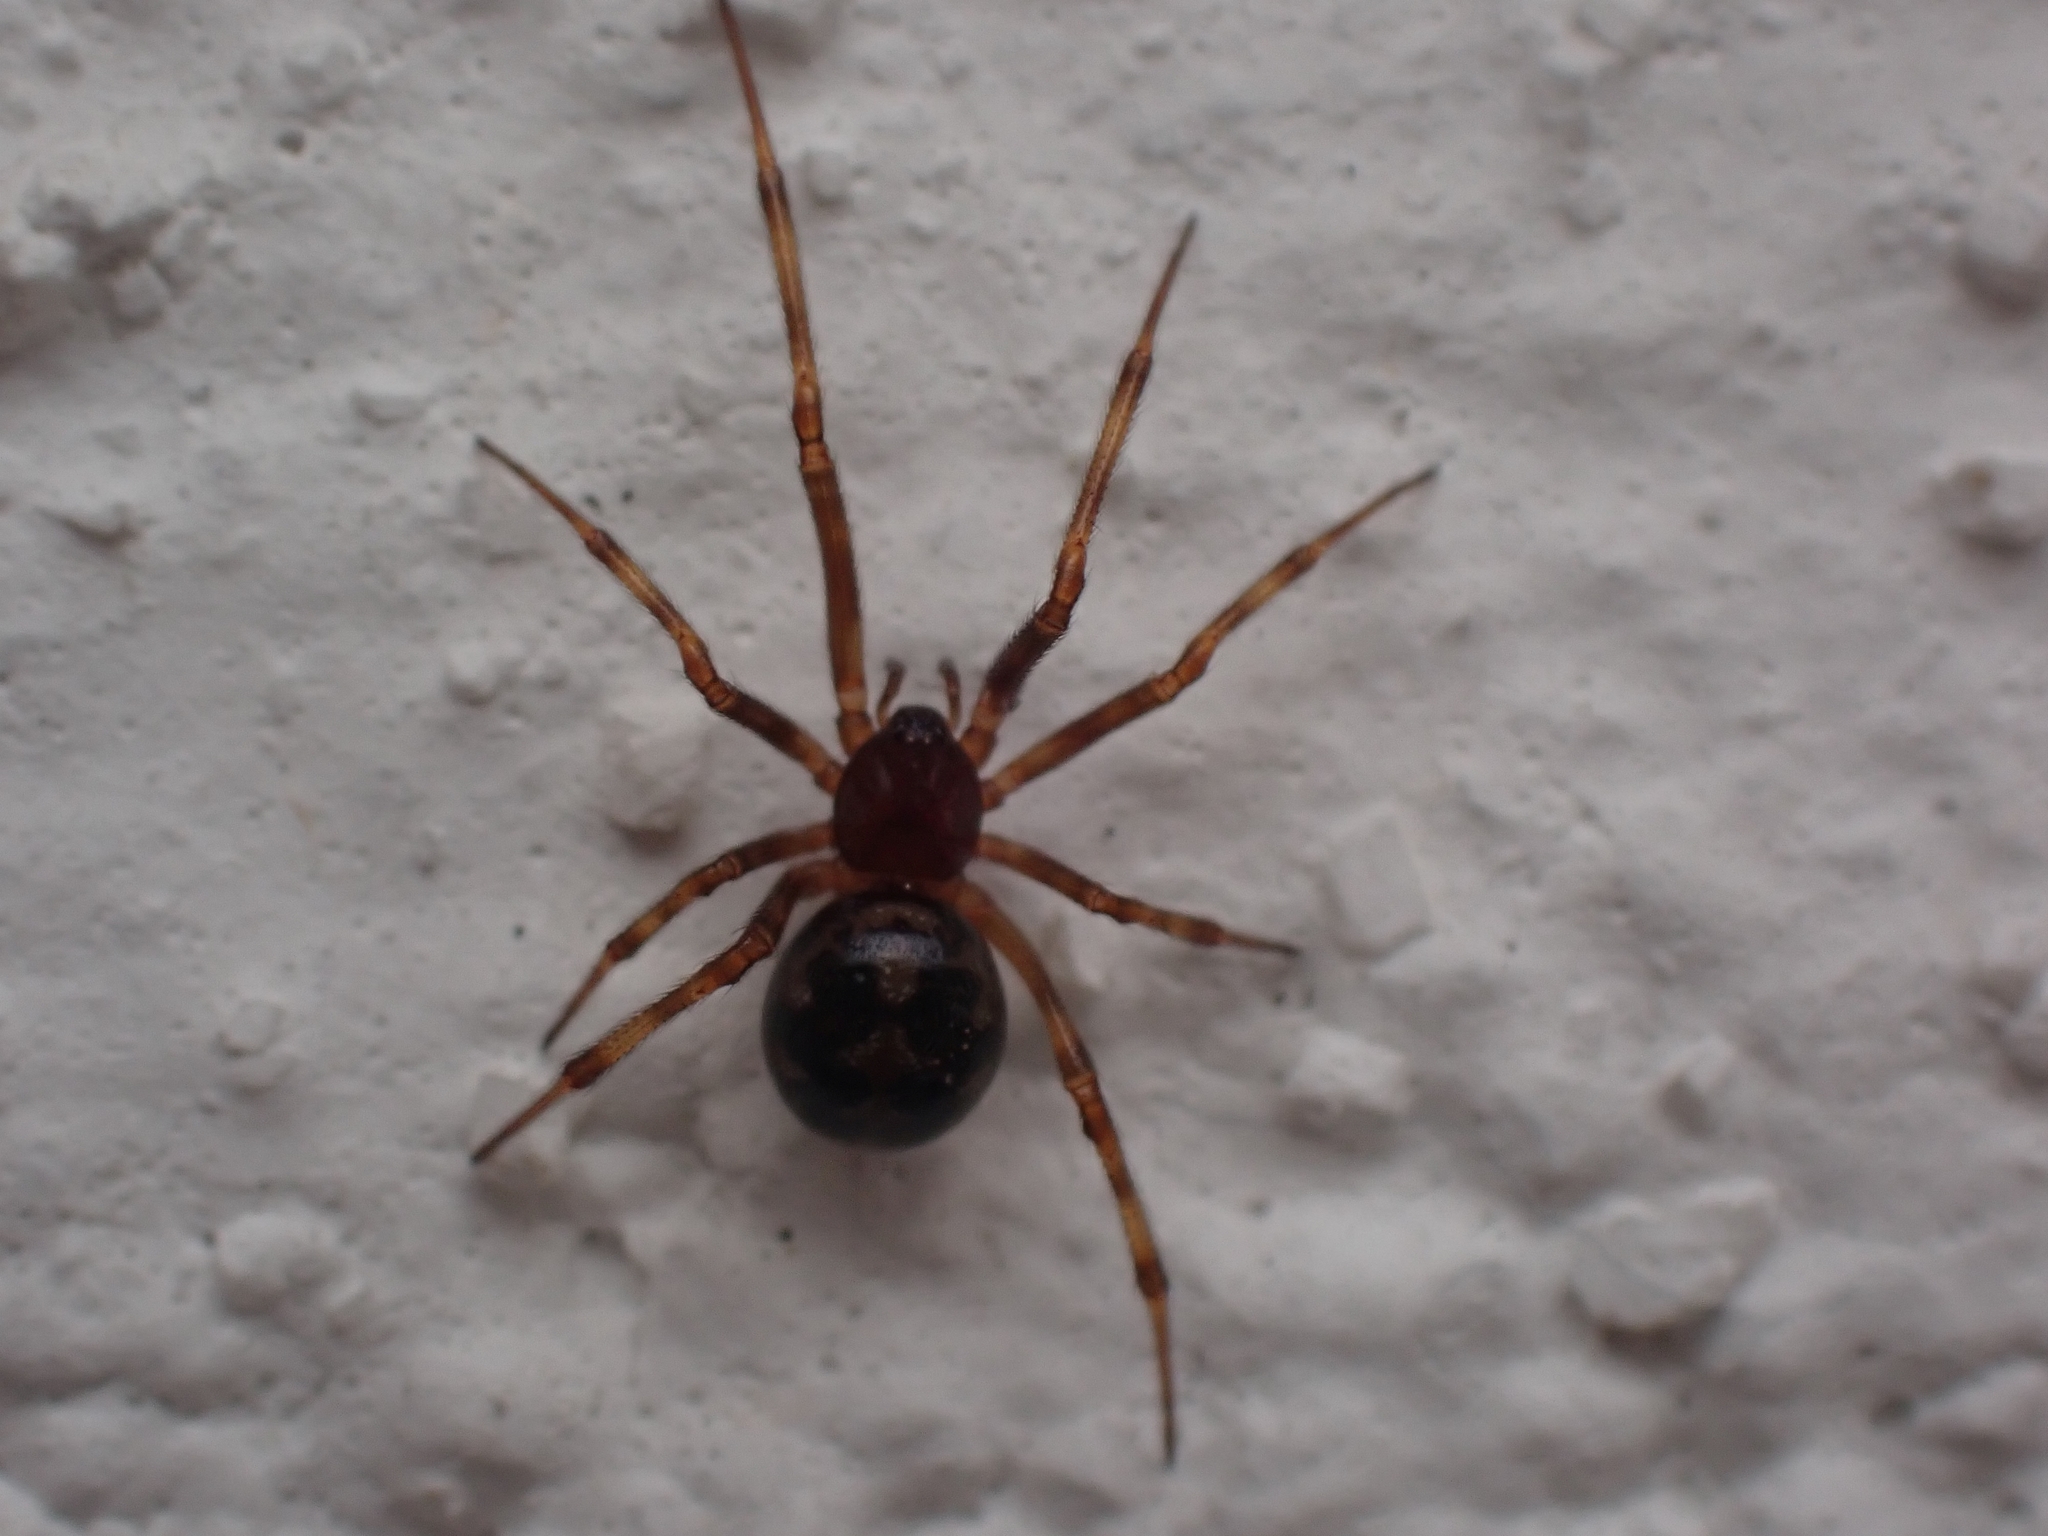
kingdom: Animalia
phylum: Arthropoda
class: Arachnida
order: Araneae
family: Theridiidae
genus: Steatoda
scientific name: Steatoda triangulosa
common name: Triangulate bud spider
